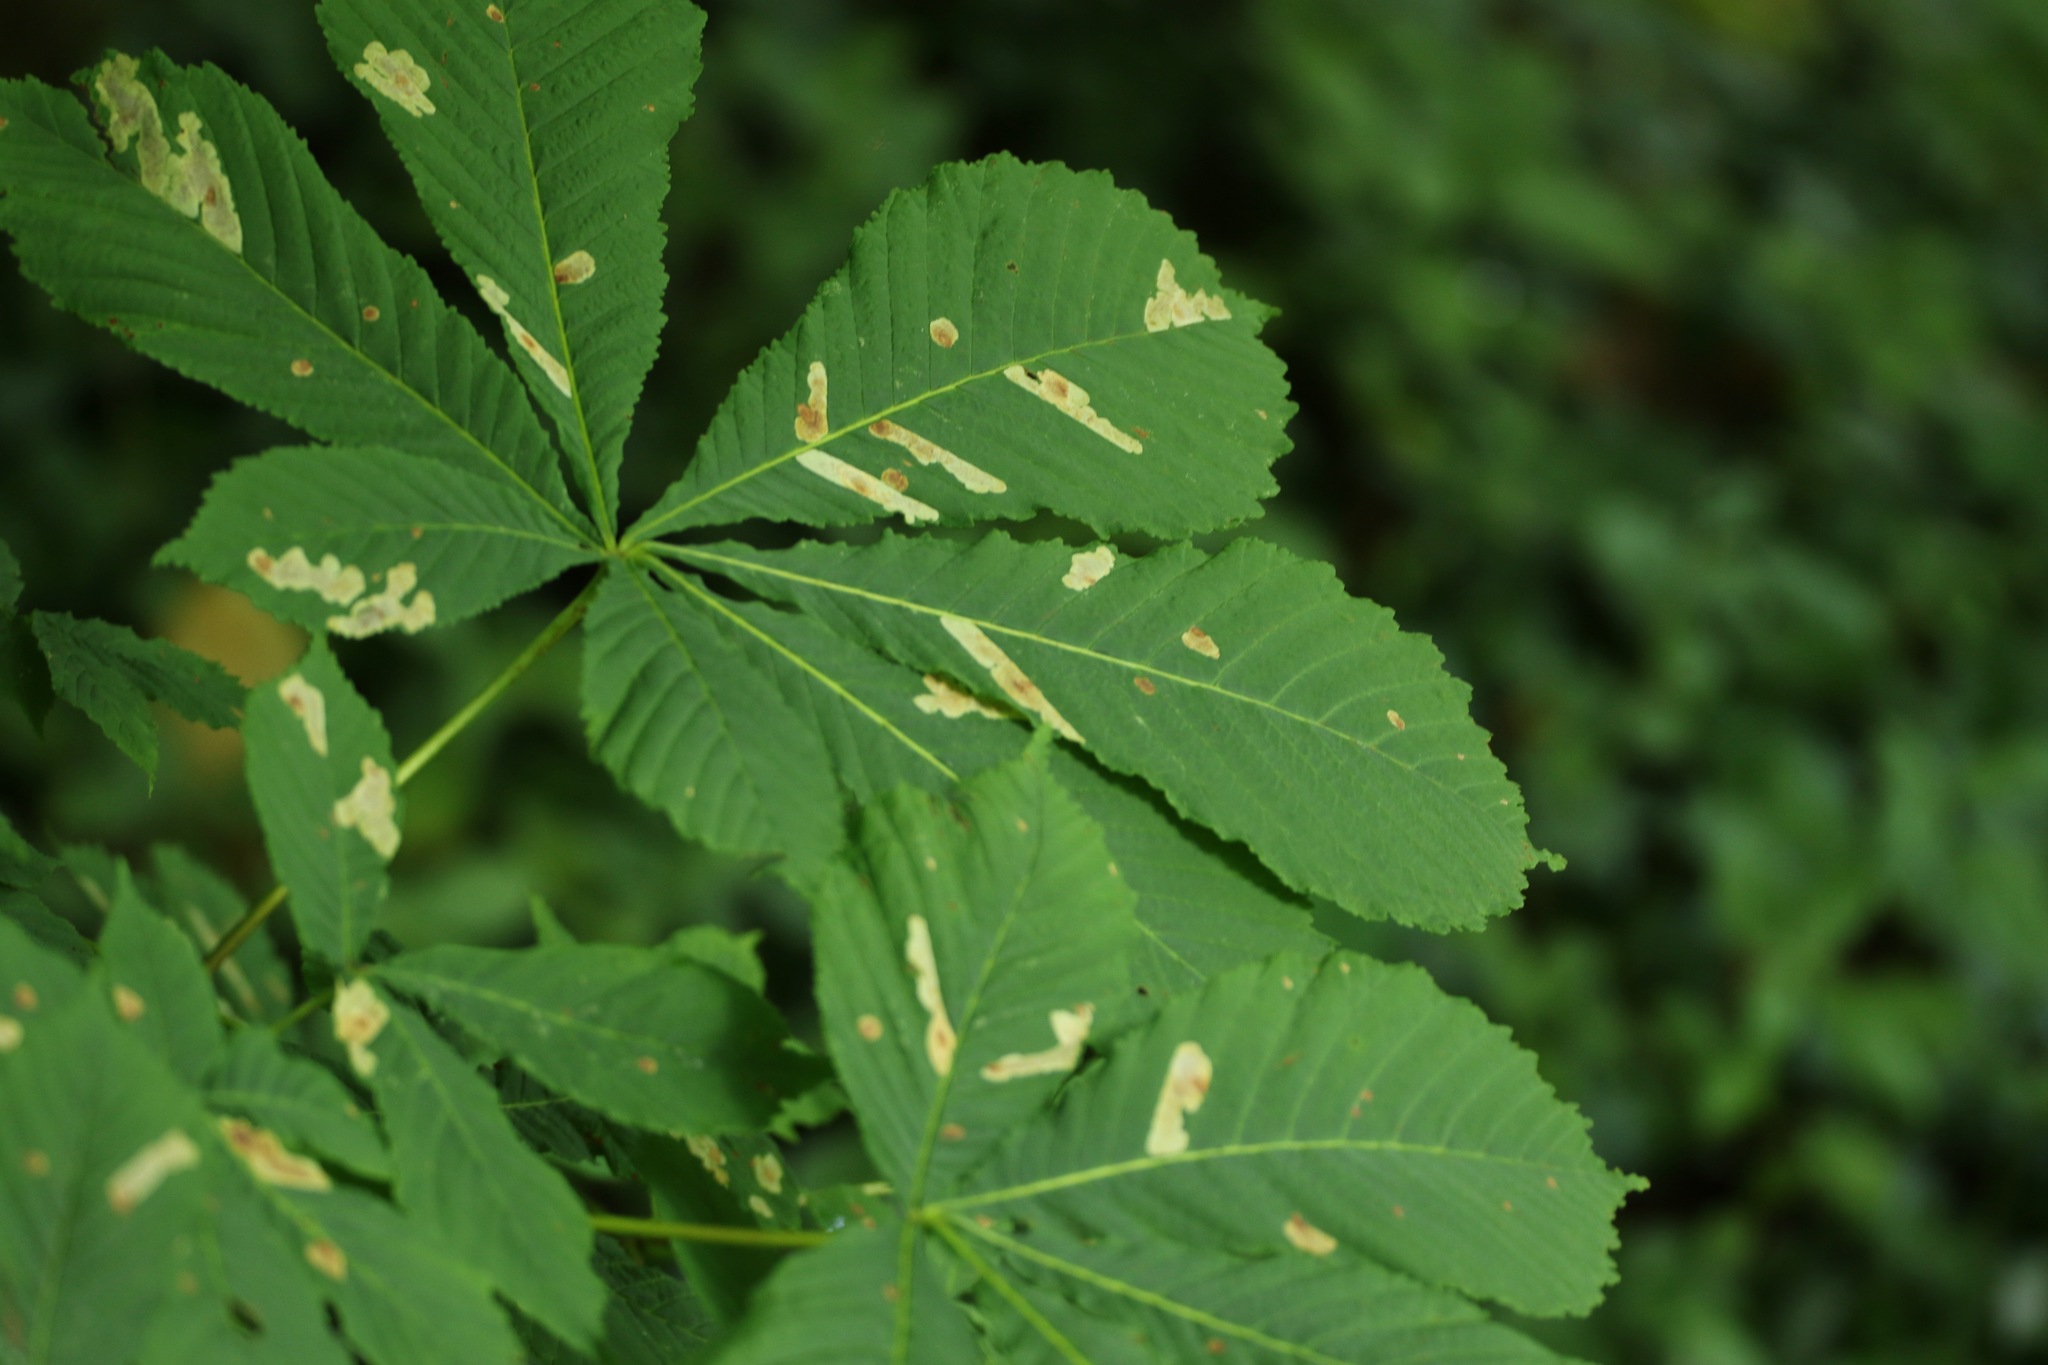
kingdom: Animalia
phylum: Arthropoda
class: Insecta
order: Lepidoptera
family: Gracillariidae
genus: Cameraria
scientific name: Cameraria ohridella
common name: Horse-chestnut leaf-miner
